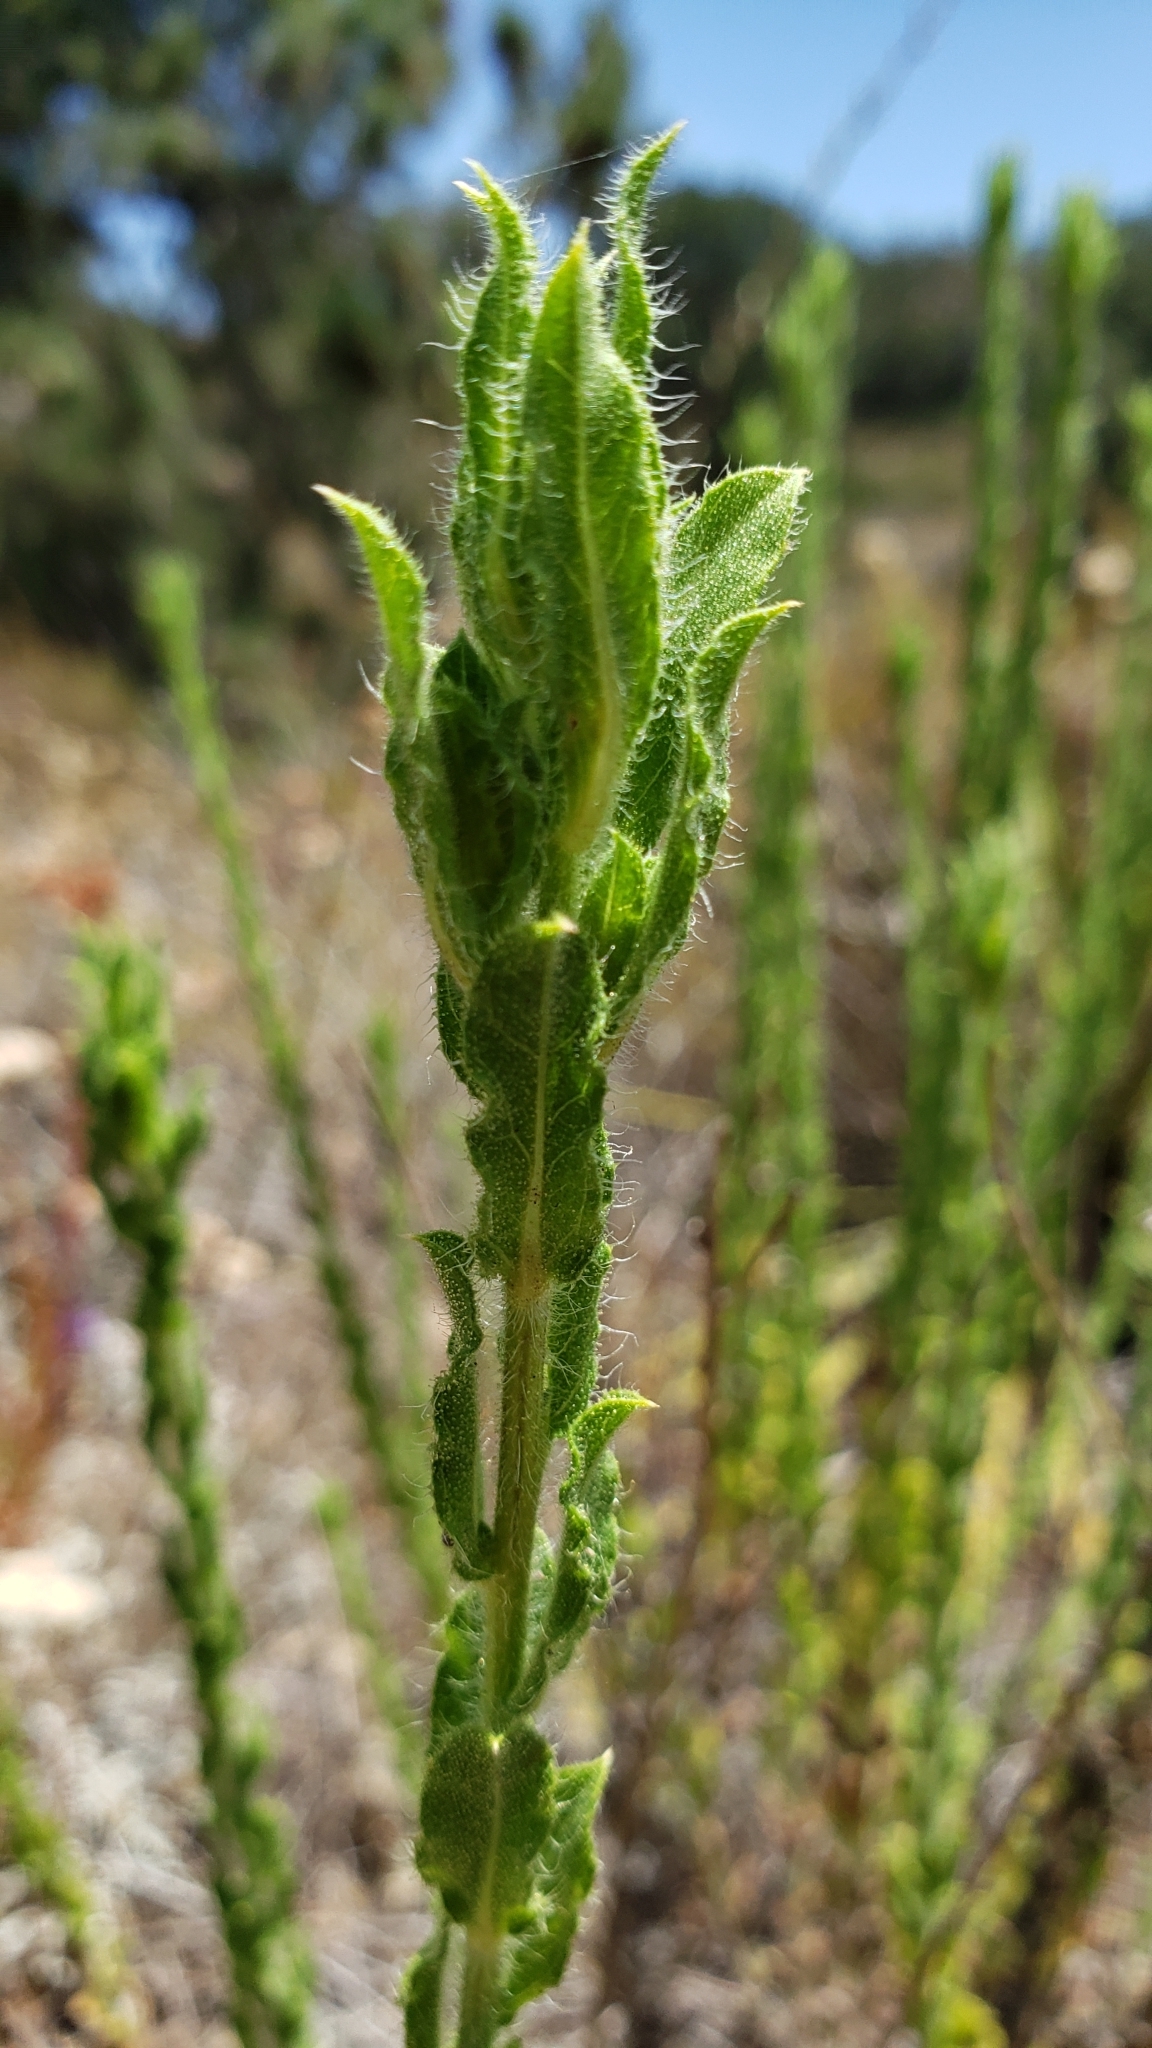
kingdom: Plantae
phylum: Tracheophyta
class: Magnoliopsida
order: Asterales
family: Asteraceae
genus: Heterotheca
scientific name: Heterotheca sessiliflora
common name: Sessile-flower golden-aster
